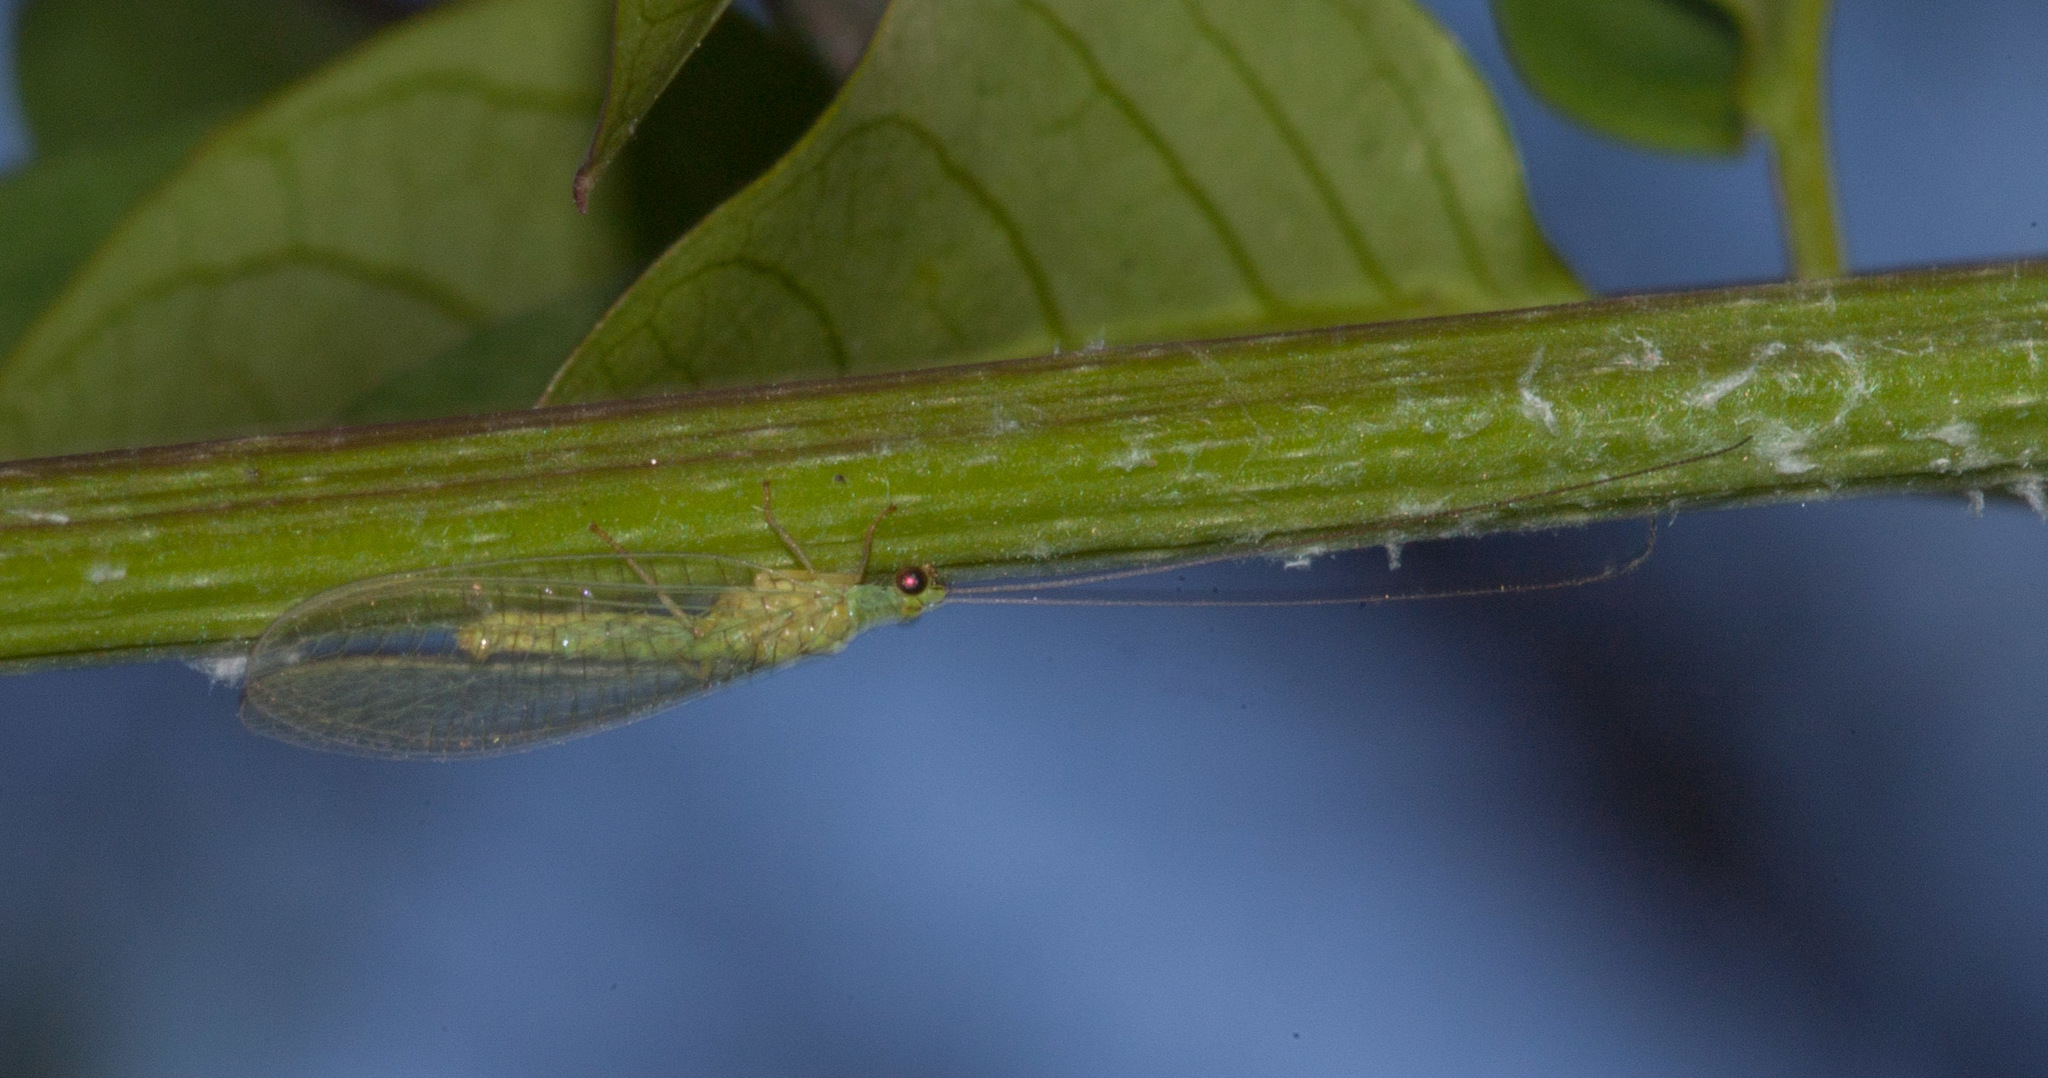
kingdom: Animalia
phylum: Arthropoda
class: Insecta
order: Neuroptera
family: Chrysopidae
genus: Mallada
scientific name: Mallada signatus
